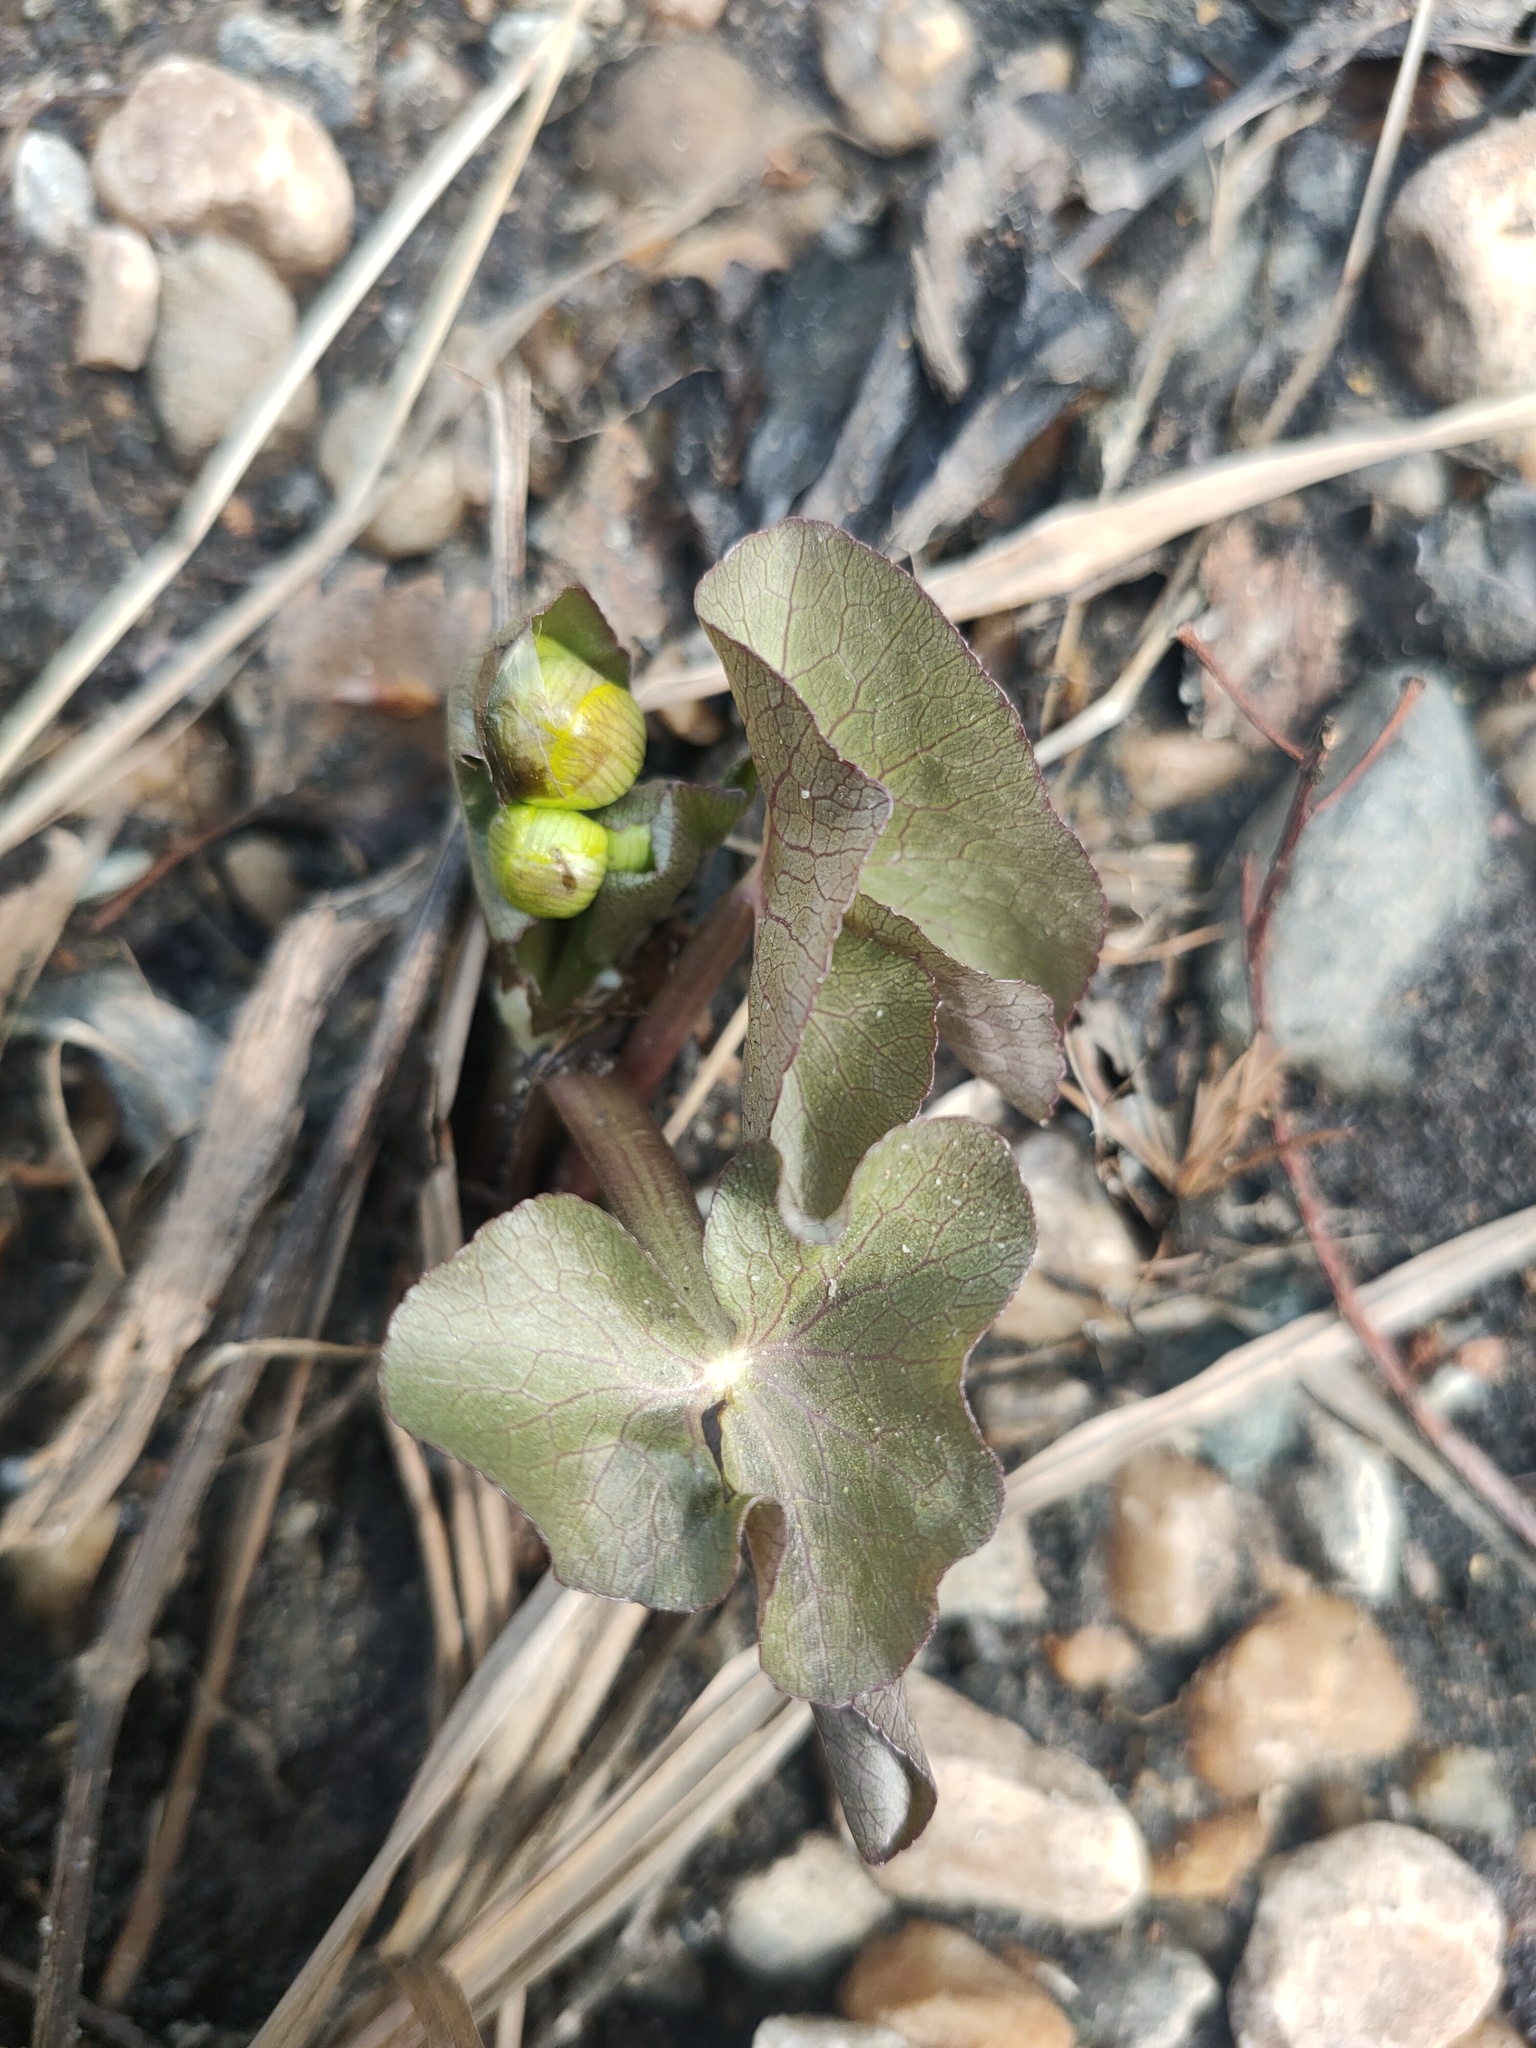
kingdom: Plantae
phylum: Tracheophyta
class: Magnoliopsida
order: Ranunculales
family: Ranunculaceae
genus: Caltha
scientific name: Caltha palustris
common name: Marsh marigold
